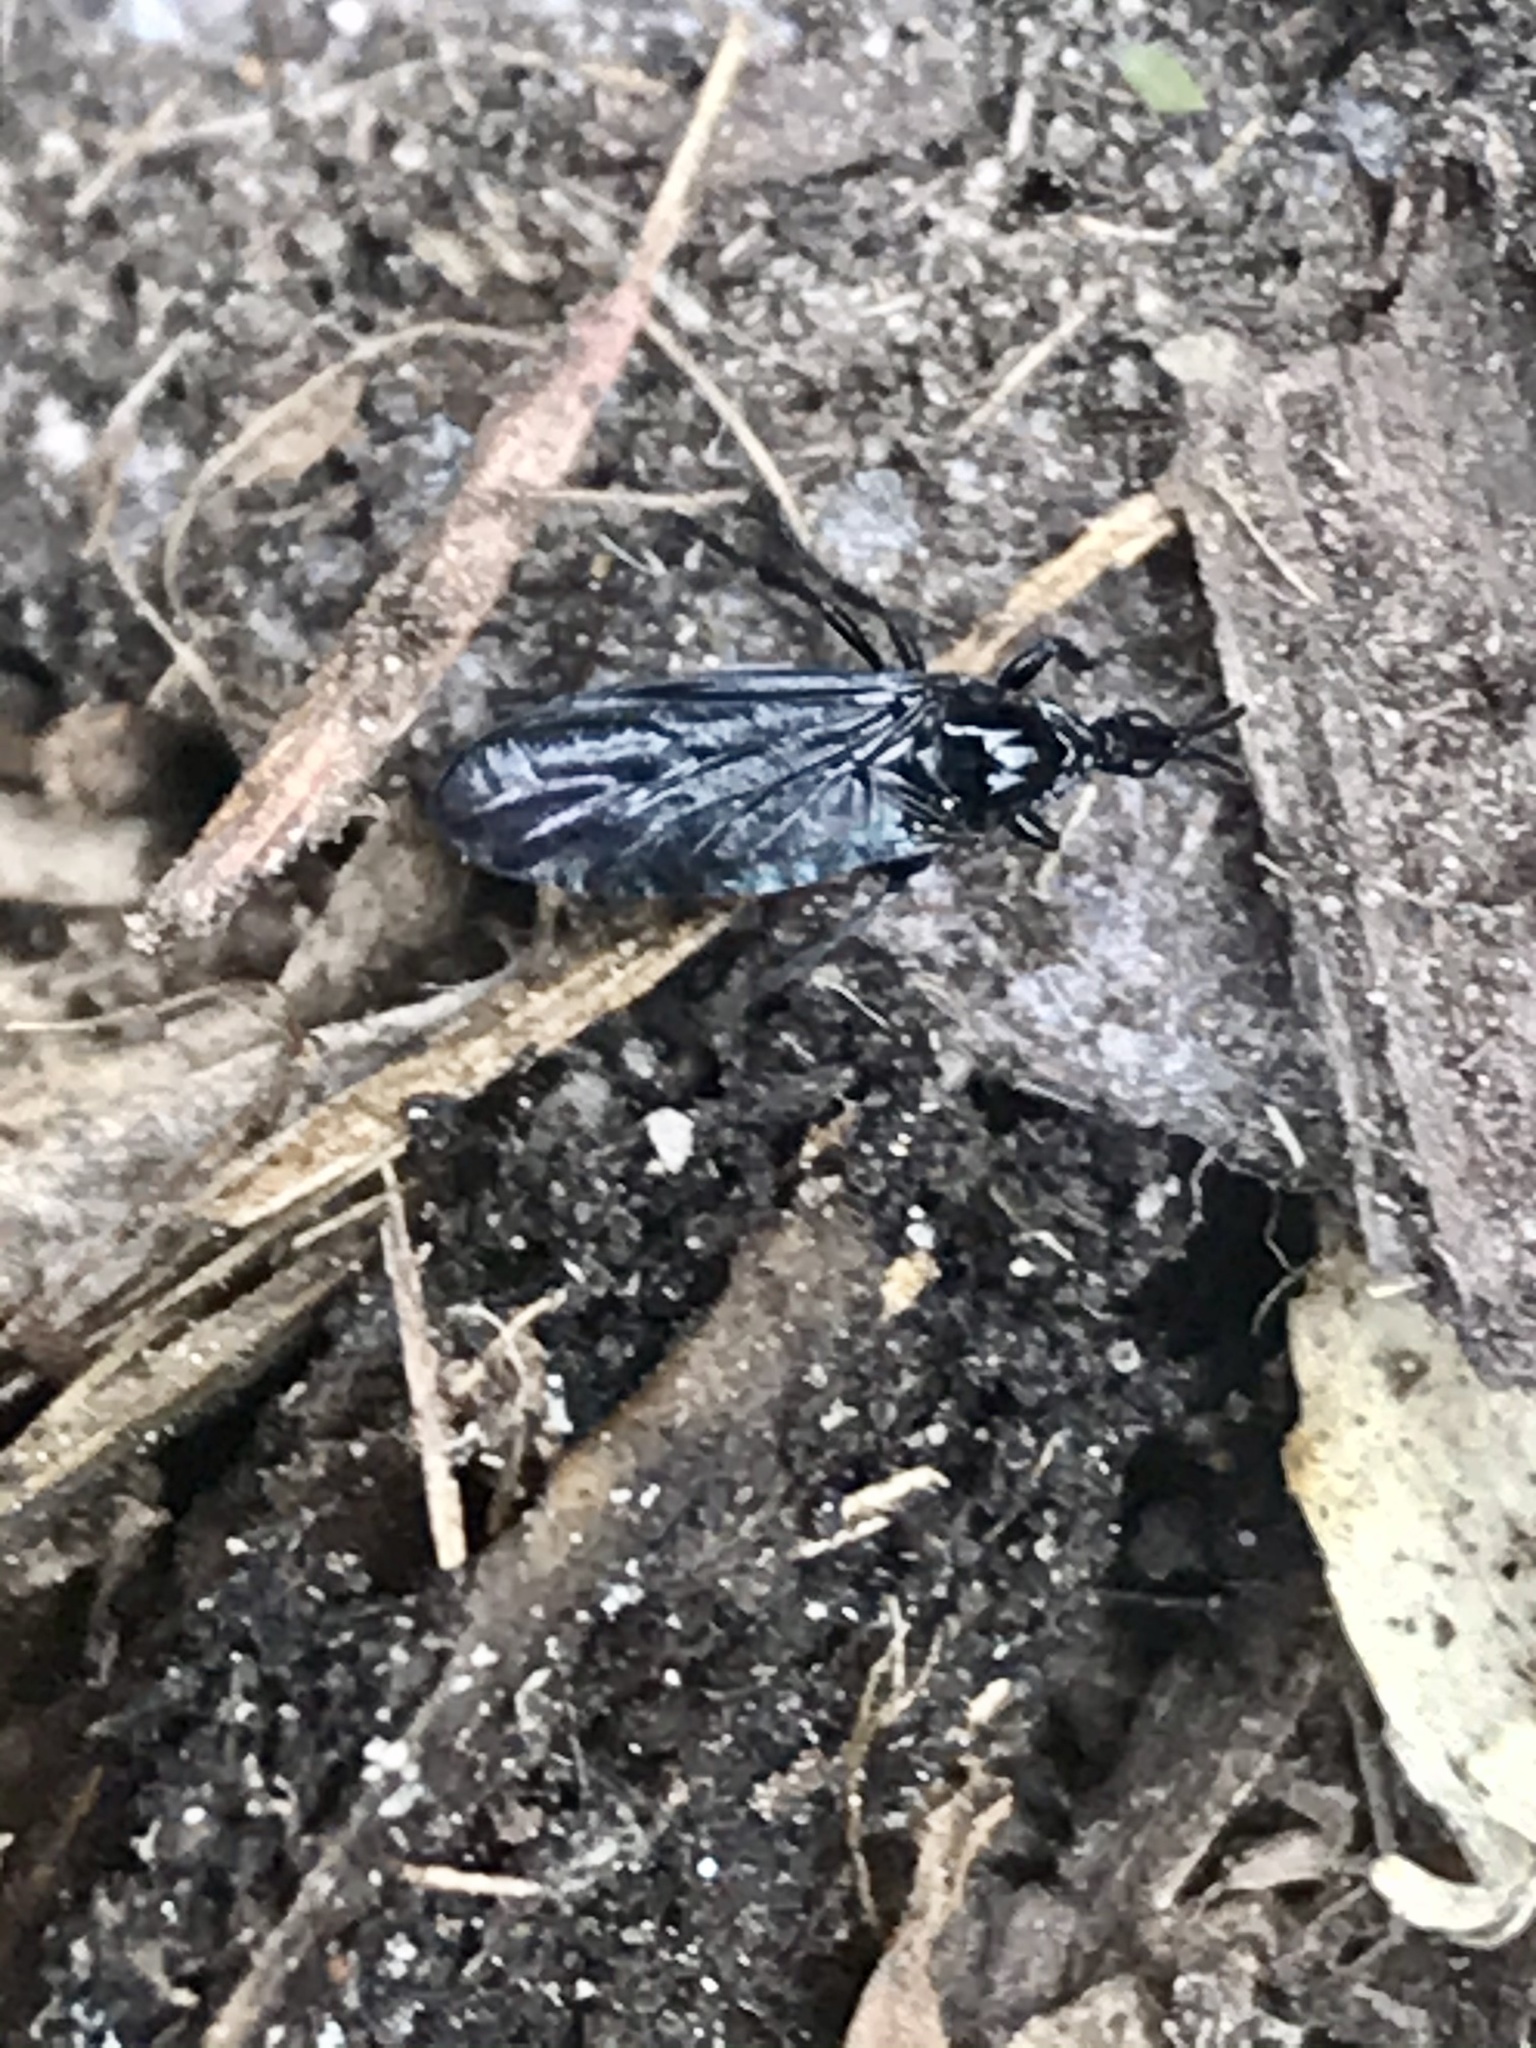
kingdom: Animalia
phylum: Arthropoda
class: Insecta
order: Diptera
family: Bibionidae
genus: Dilophus
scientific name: Dilophus orbatus
